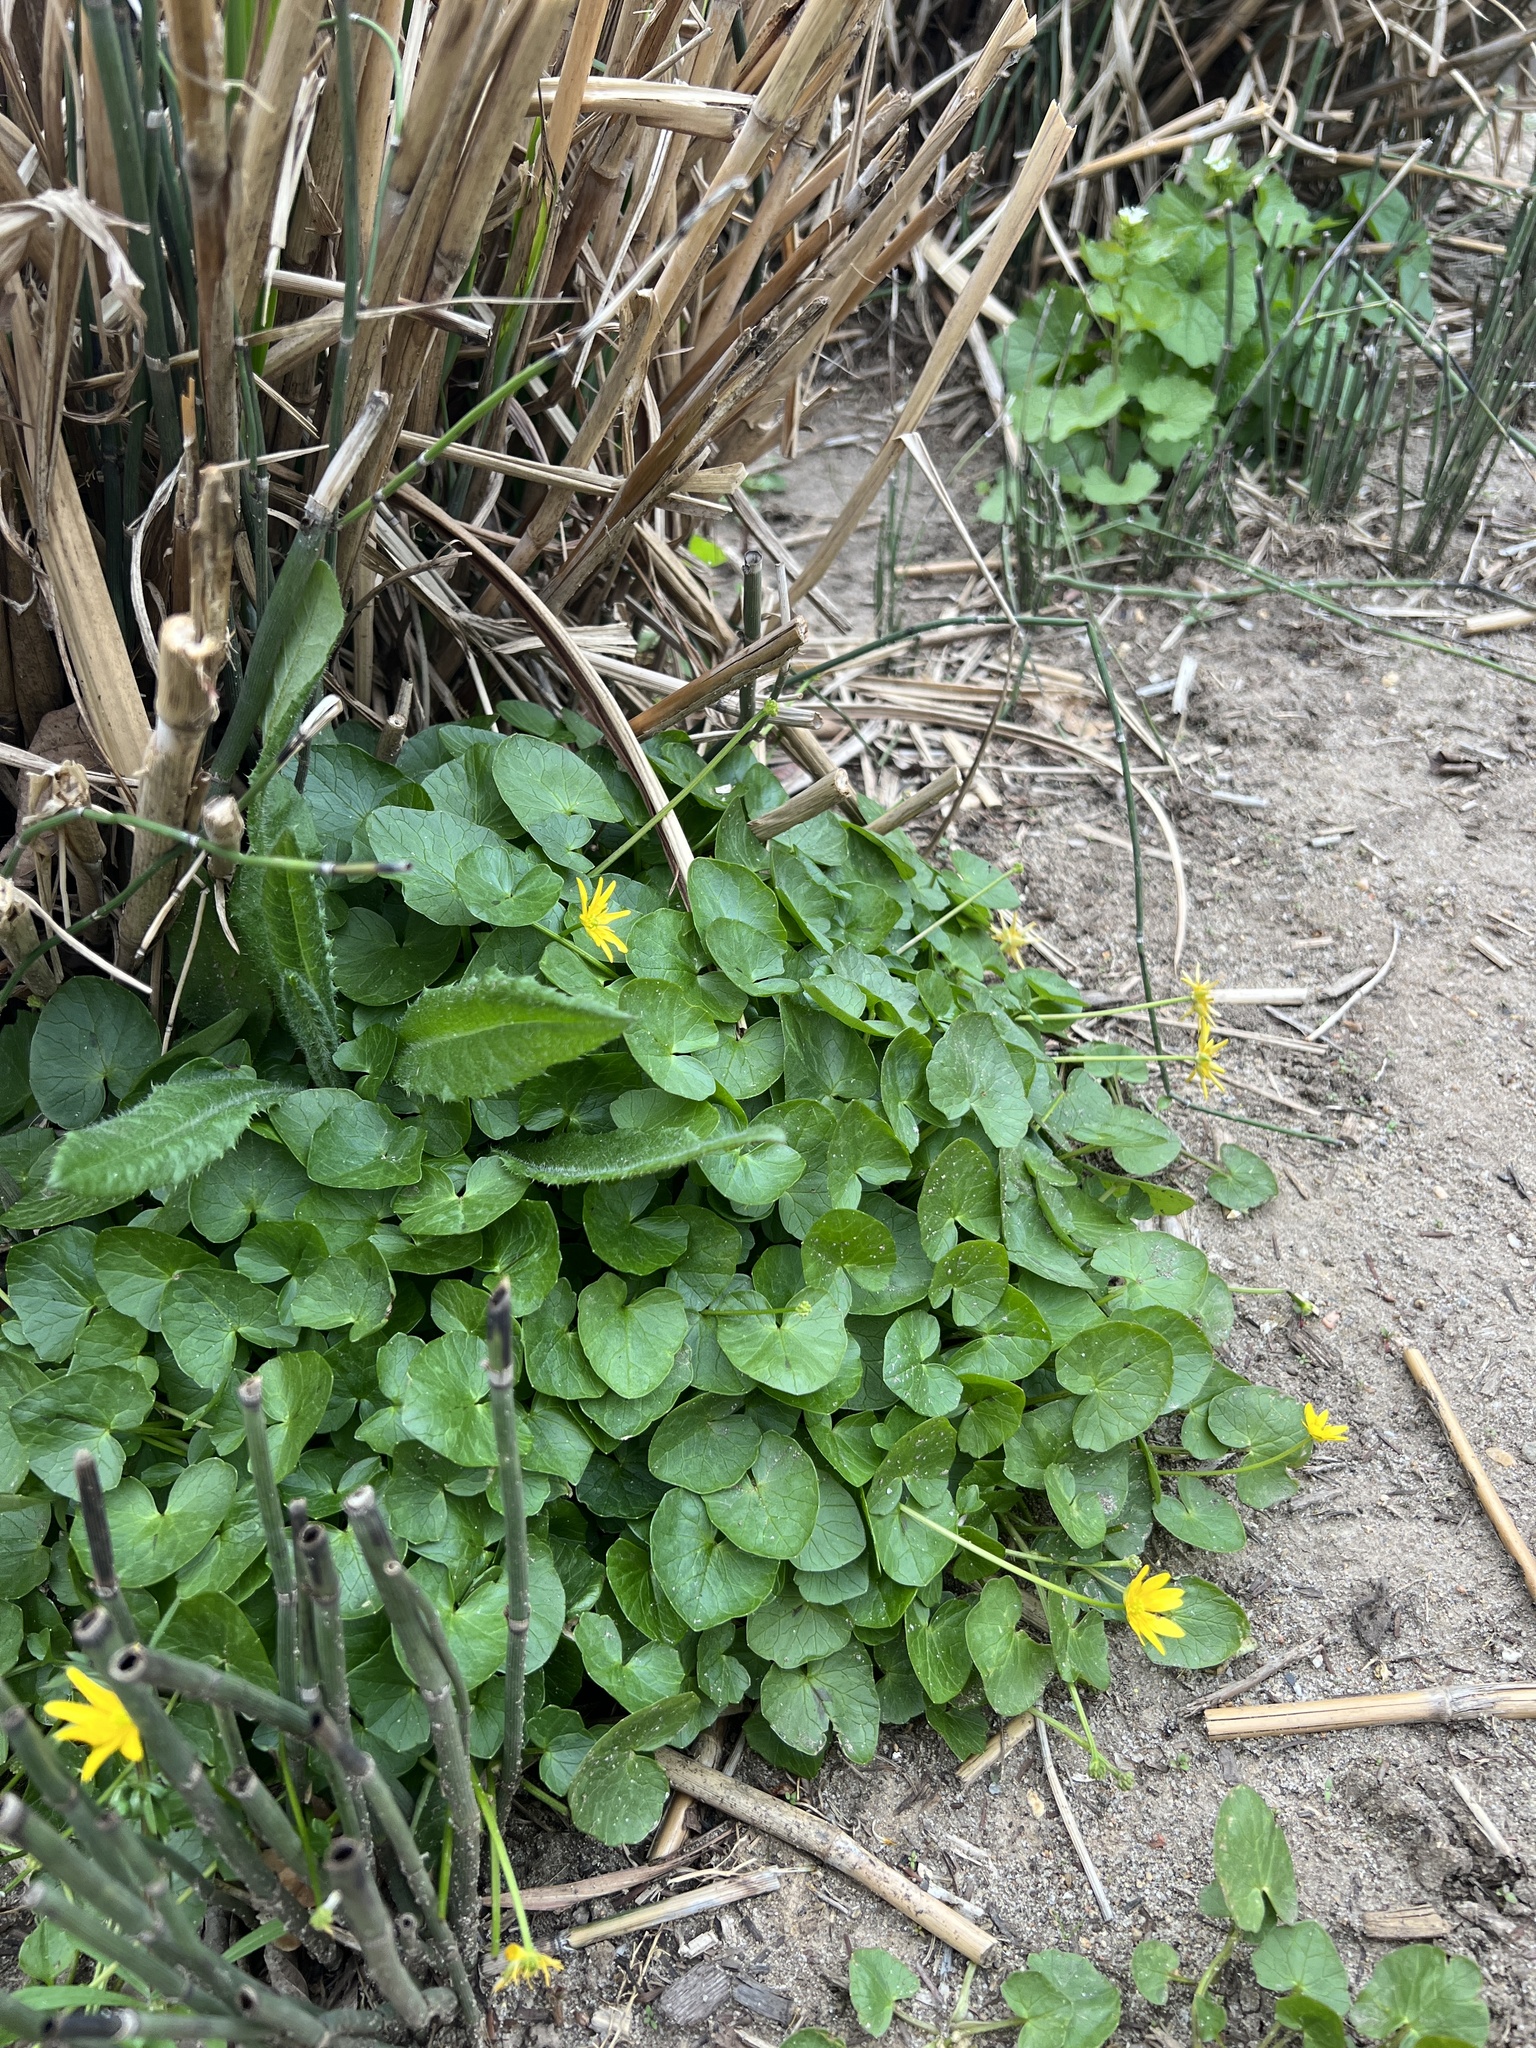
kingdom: Plantae
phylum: Tracheophyta
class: Magnoliopsida
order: Ranunculales
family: Ranunculaceae
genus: Ficaria
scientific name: Ficaria verna
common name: Lesser celandine
